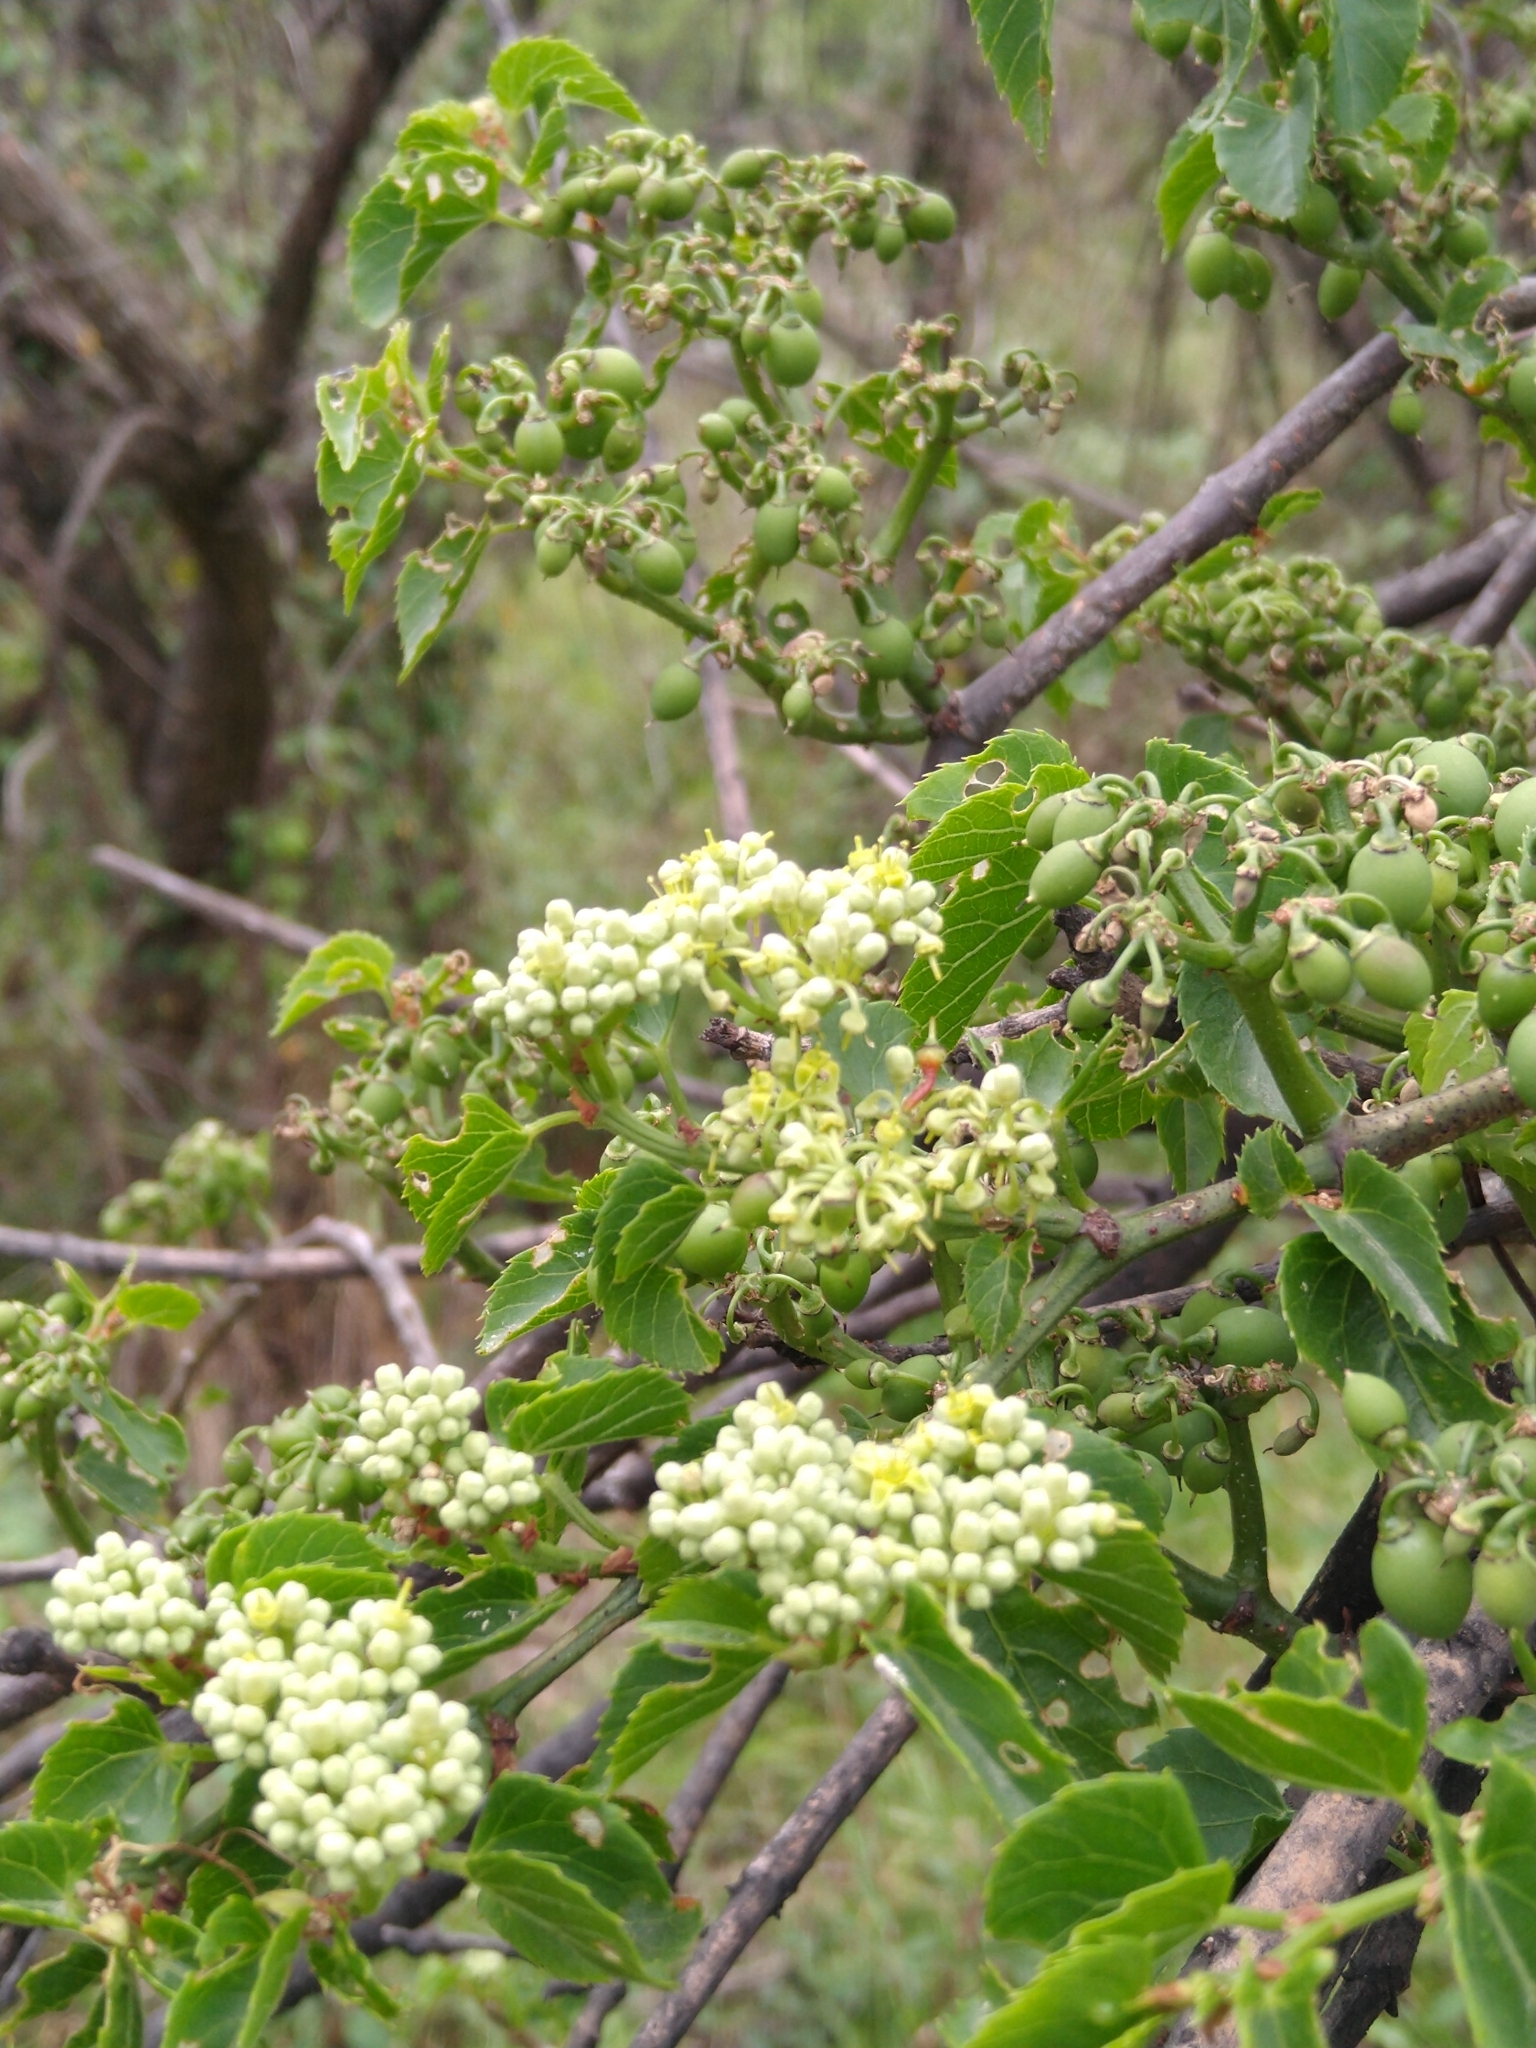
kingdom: Plantae
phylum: Tracheophyta
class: Magnoliopsida
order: Vitales
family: Vitaceae
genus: Cissus
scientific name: Cissus verticillata
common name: Princess vine
